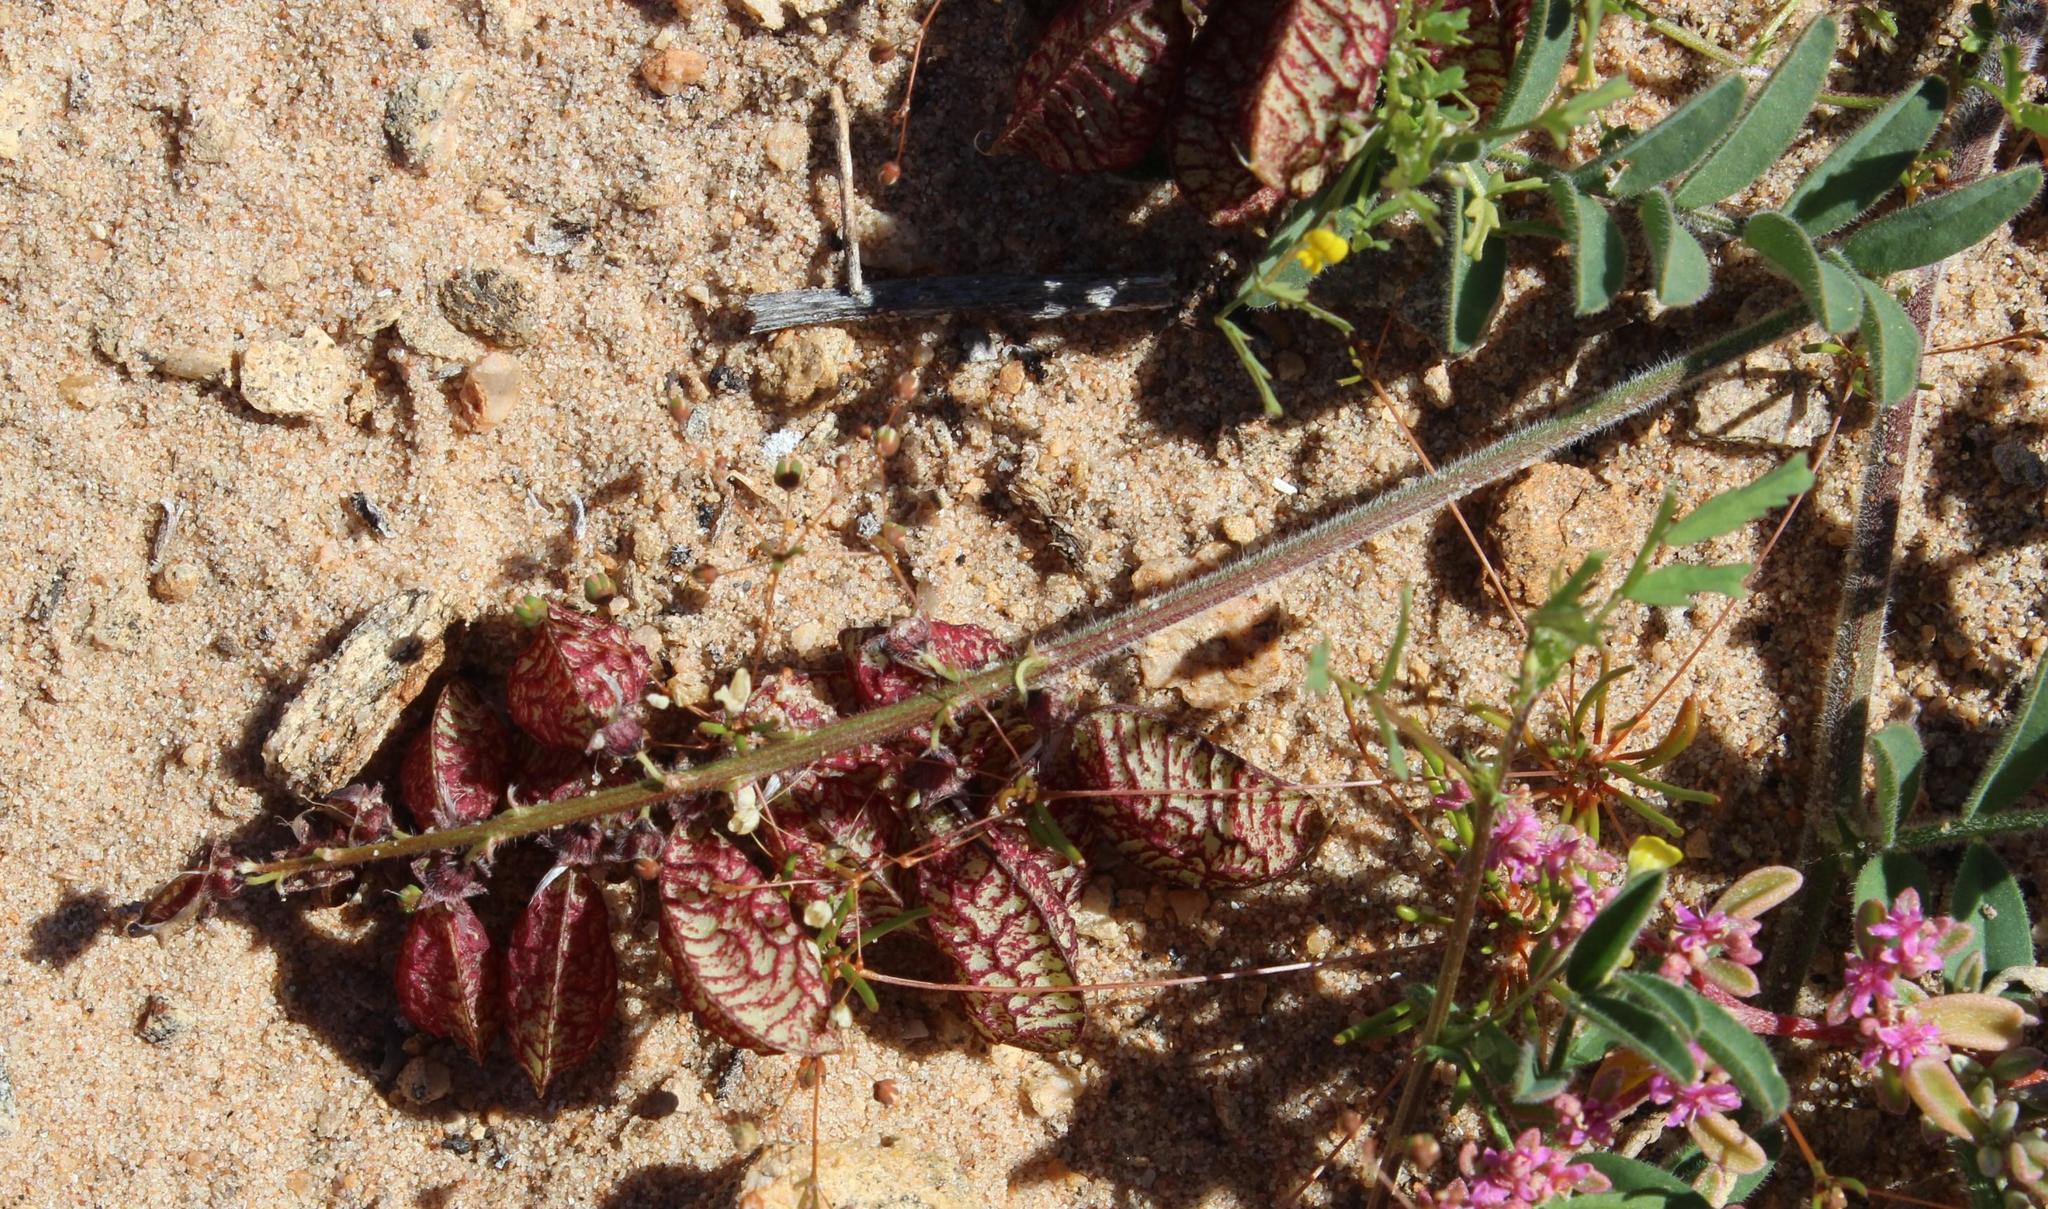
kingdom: Plantae
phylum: Tracheophyta
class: Magnoliopsida
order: Fabales
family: Fabaceae
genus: Lessertia
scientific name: Lessertia capitata
